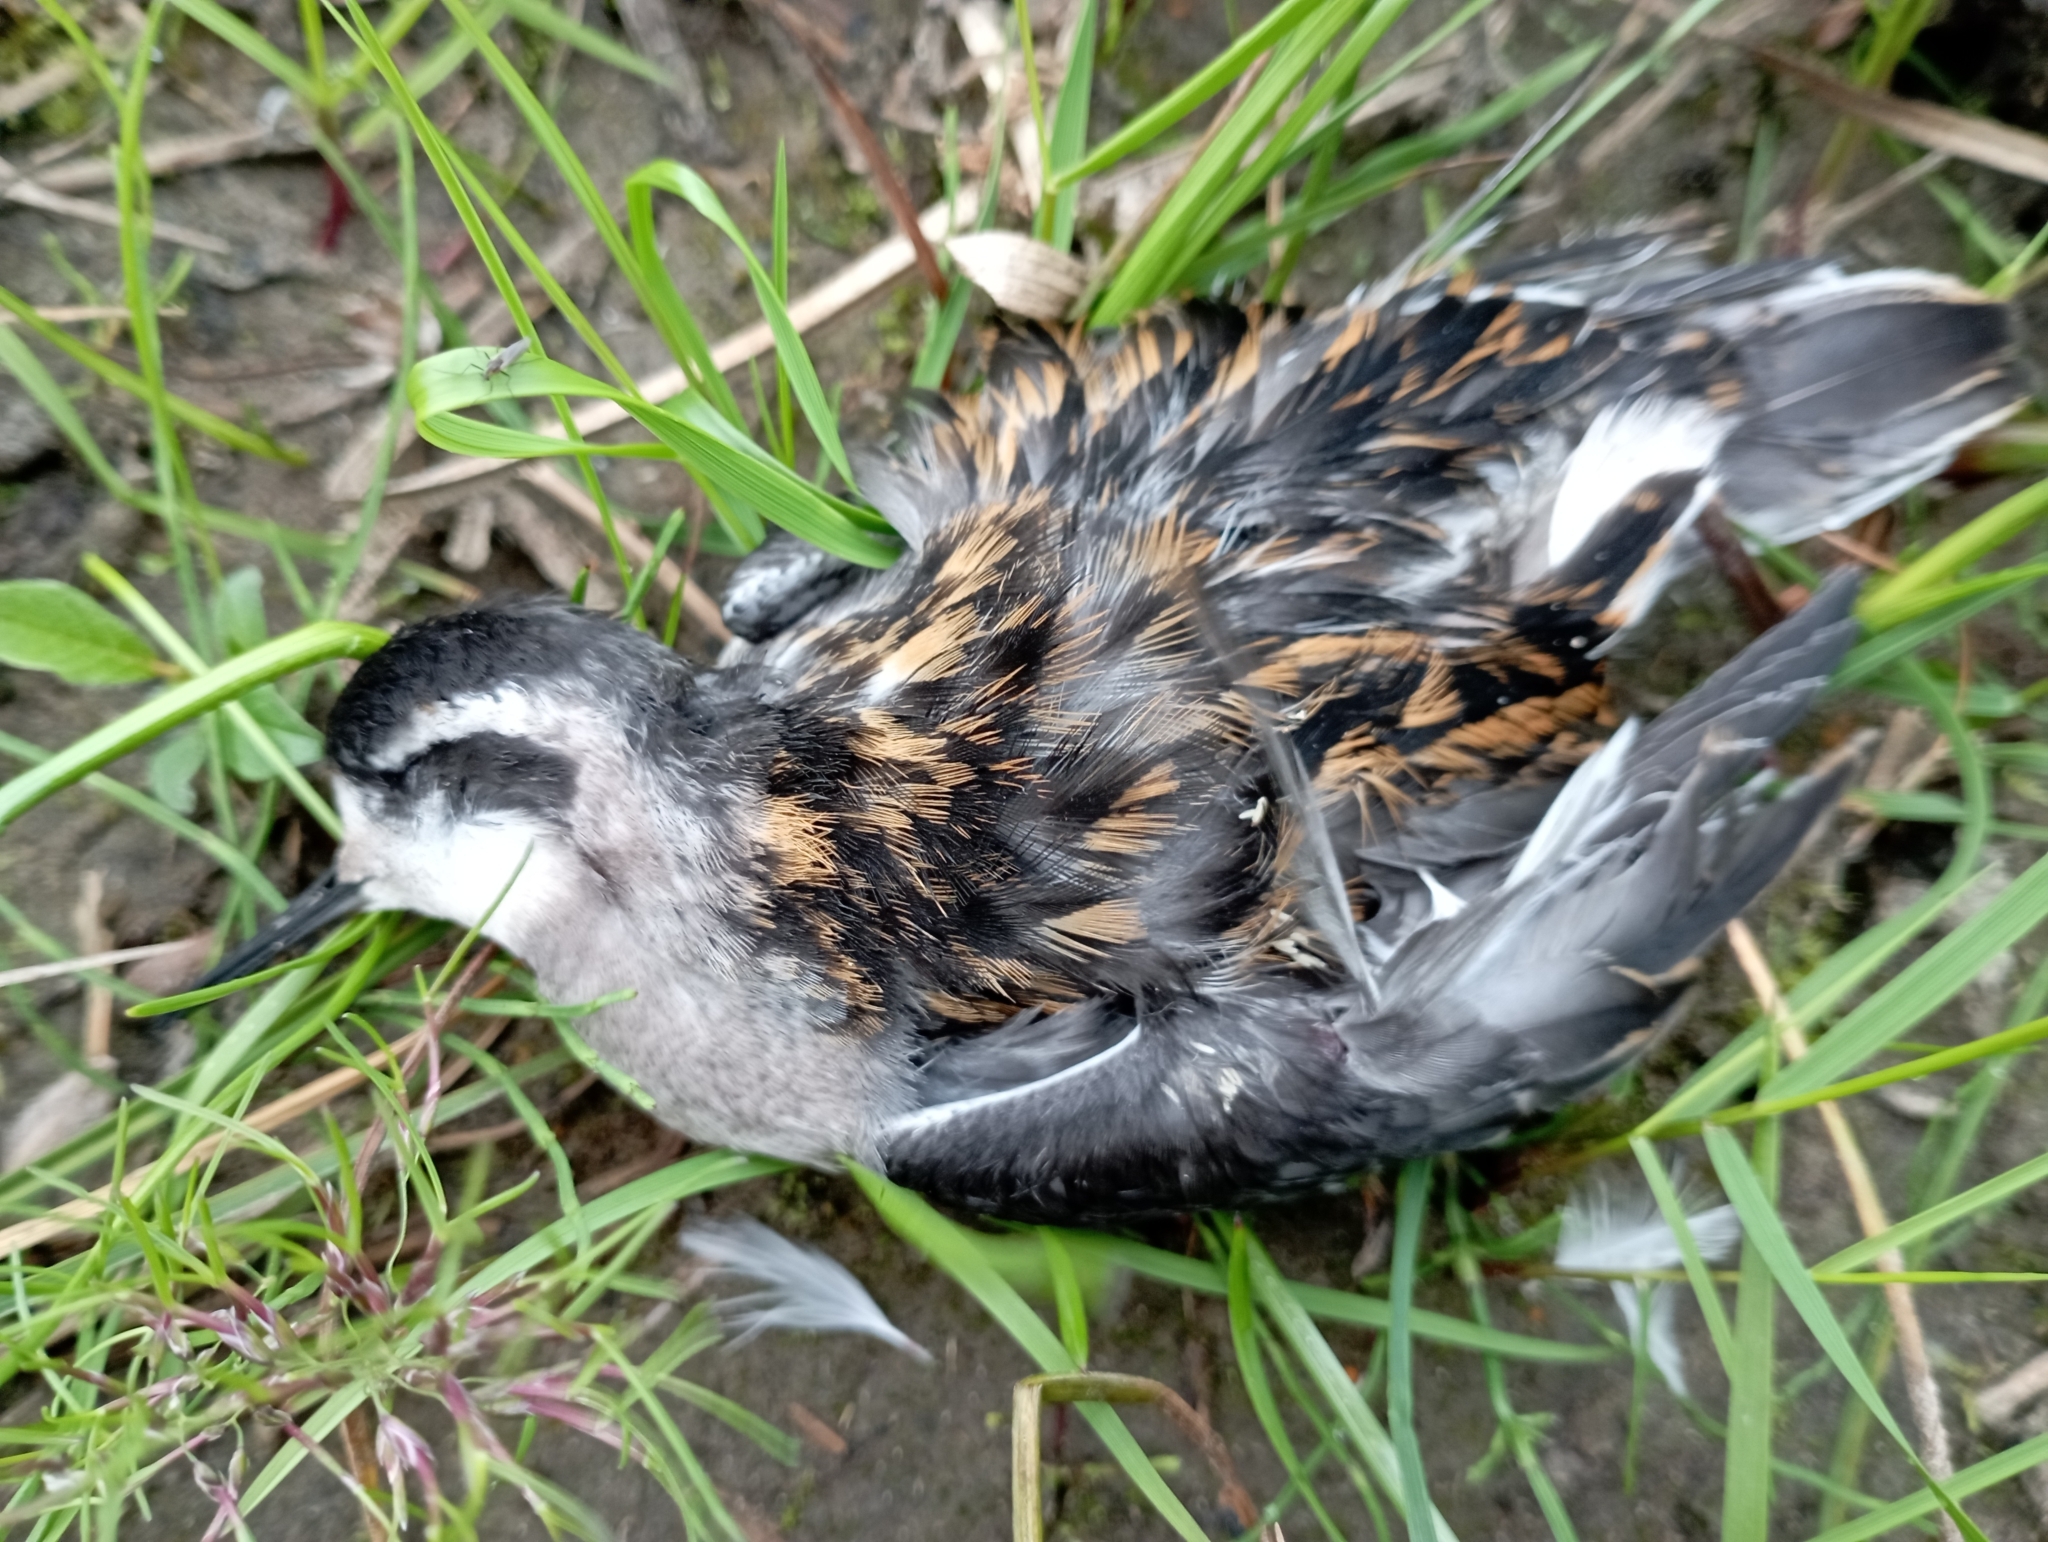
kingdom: Animalia
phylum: Chordata
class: Aves
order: Charadriiformes
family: Scolopacidae
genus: Phalaropus
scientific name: Phalaropus lobatus
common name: Red-necked phalarope
